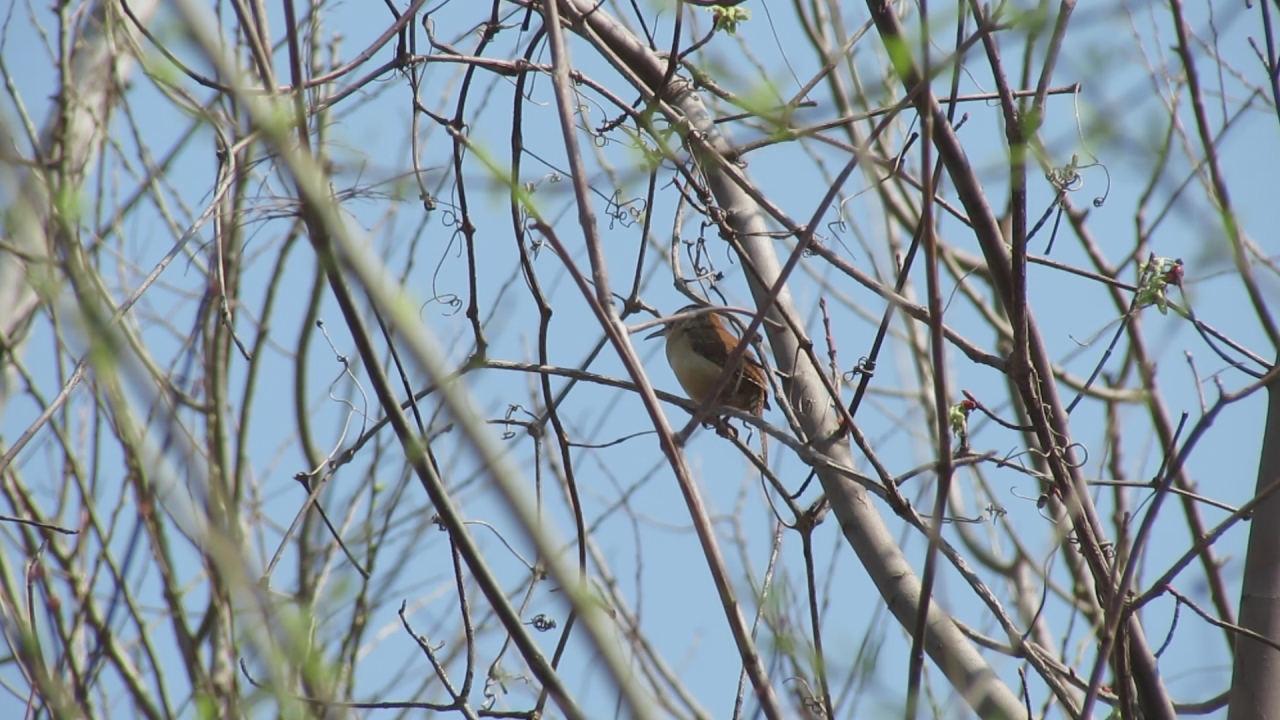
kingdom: Animalia
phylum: Chordata
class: Aves
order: Passeriformes
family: Troglodytidae
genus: Thryothorus
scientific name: Thryothorus ludovicianus
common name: Carolina wren
